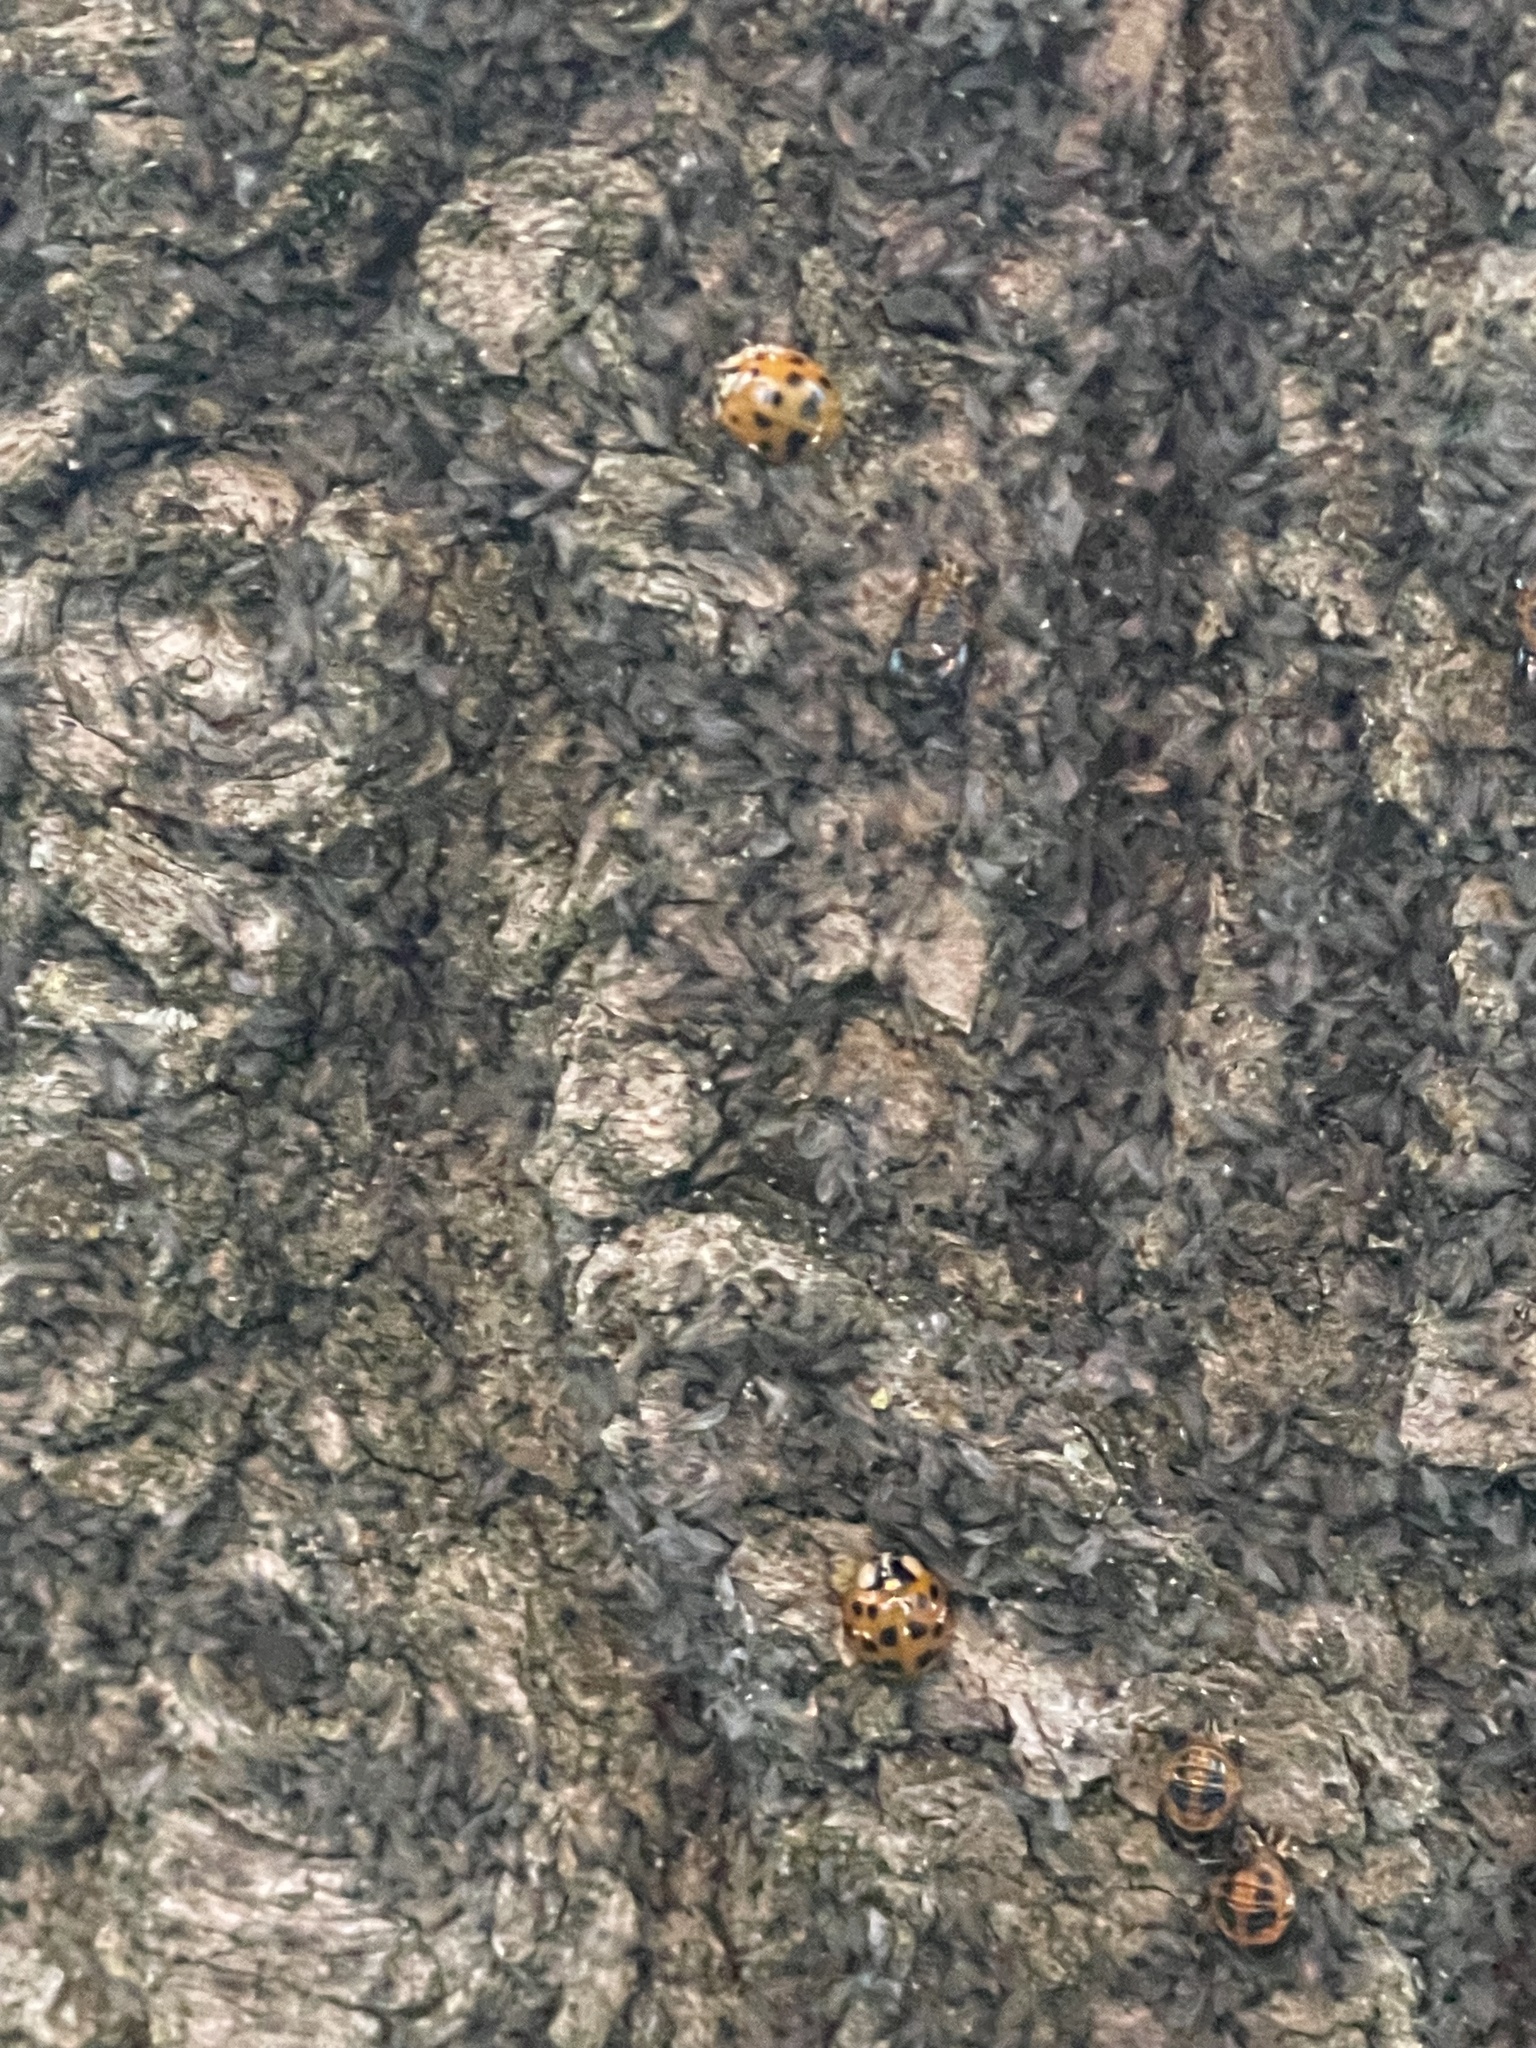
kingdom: Animalia
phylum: Arthropoda
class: Insecta
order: Coleoptera
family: Coccinellidae
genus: Harmonia
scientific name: Harmonia axyridis
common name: Harlequin ladybird
